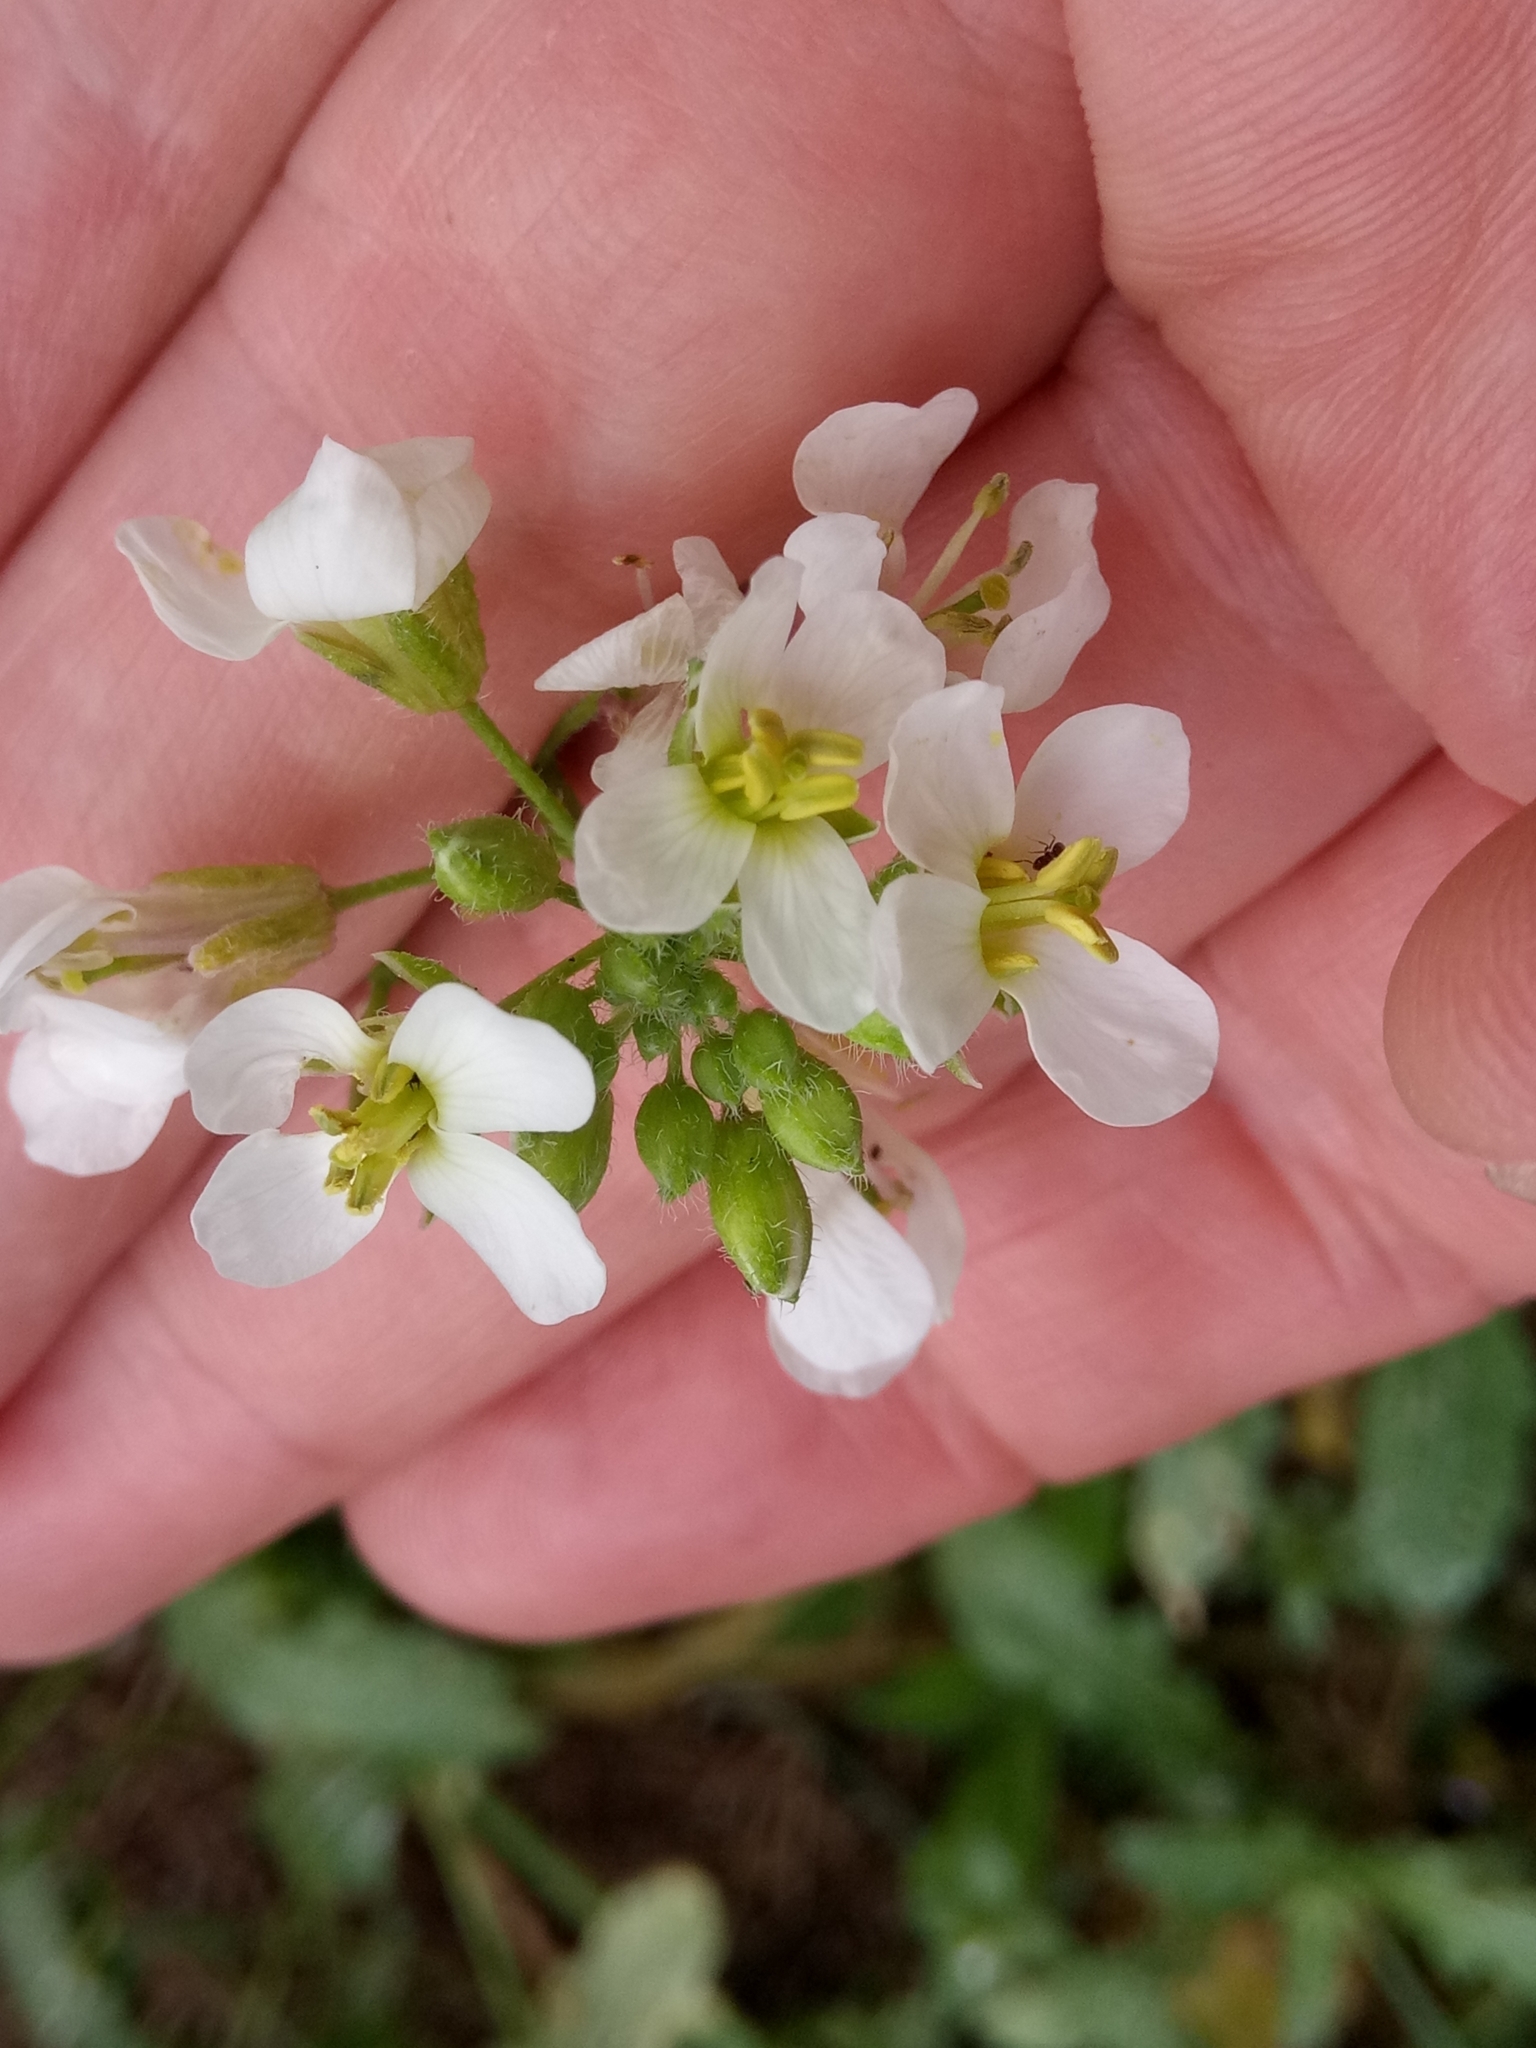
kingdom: Plantae
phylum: Tracheophyta
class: Magnoliopsida
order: Brassicales
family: Brassicaceae
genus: Diplotaxis
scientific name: Diplotaxis erucoides
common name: White rocket
